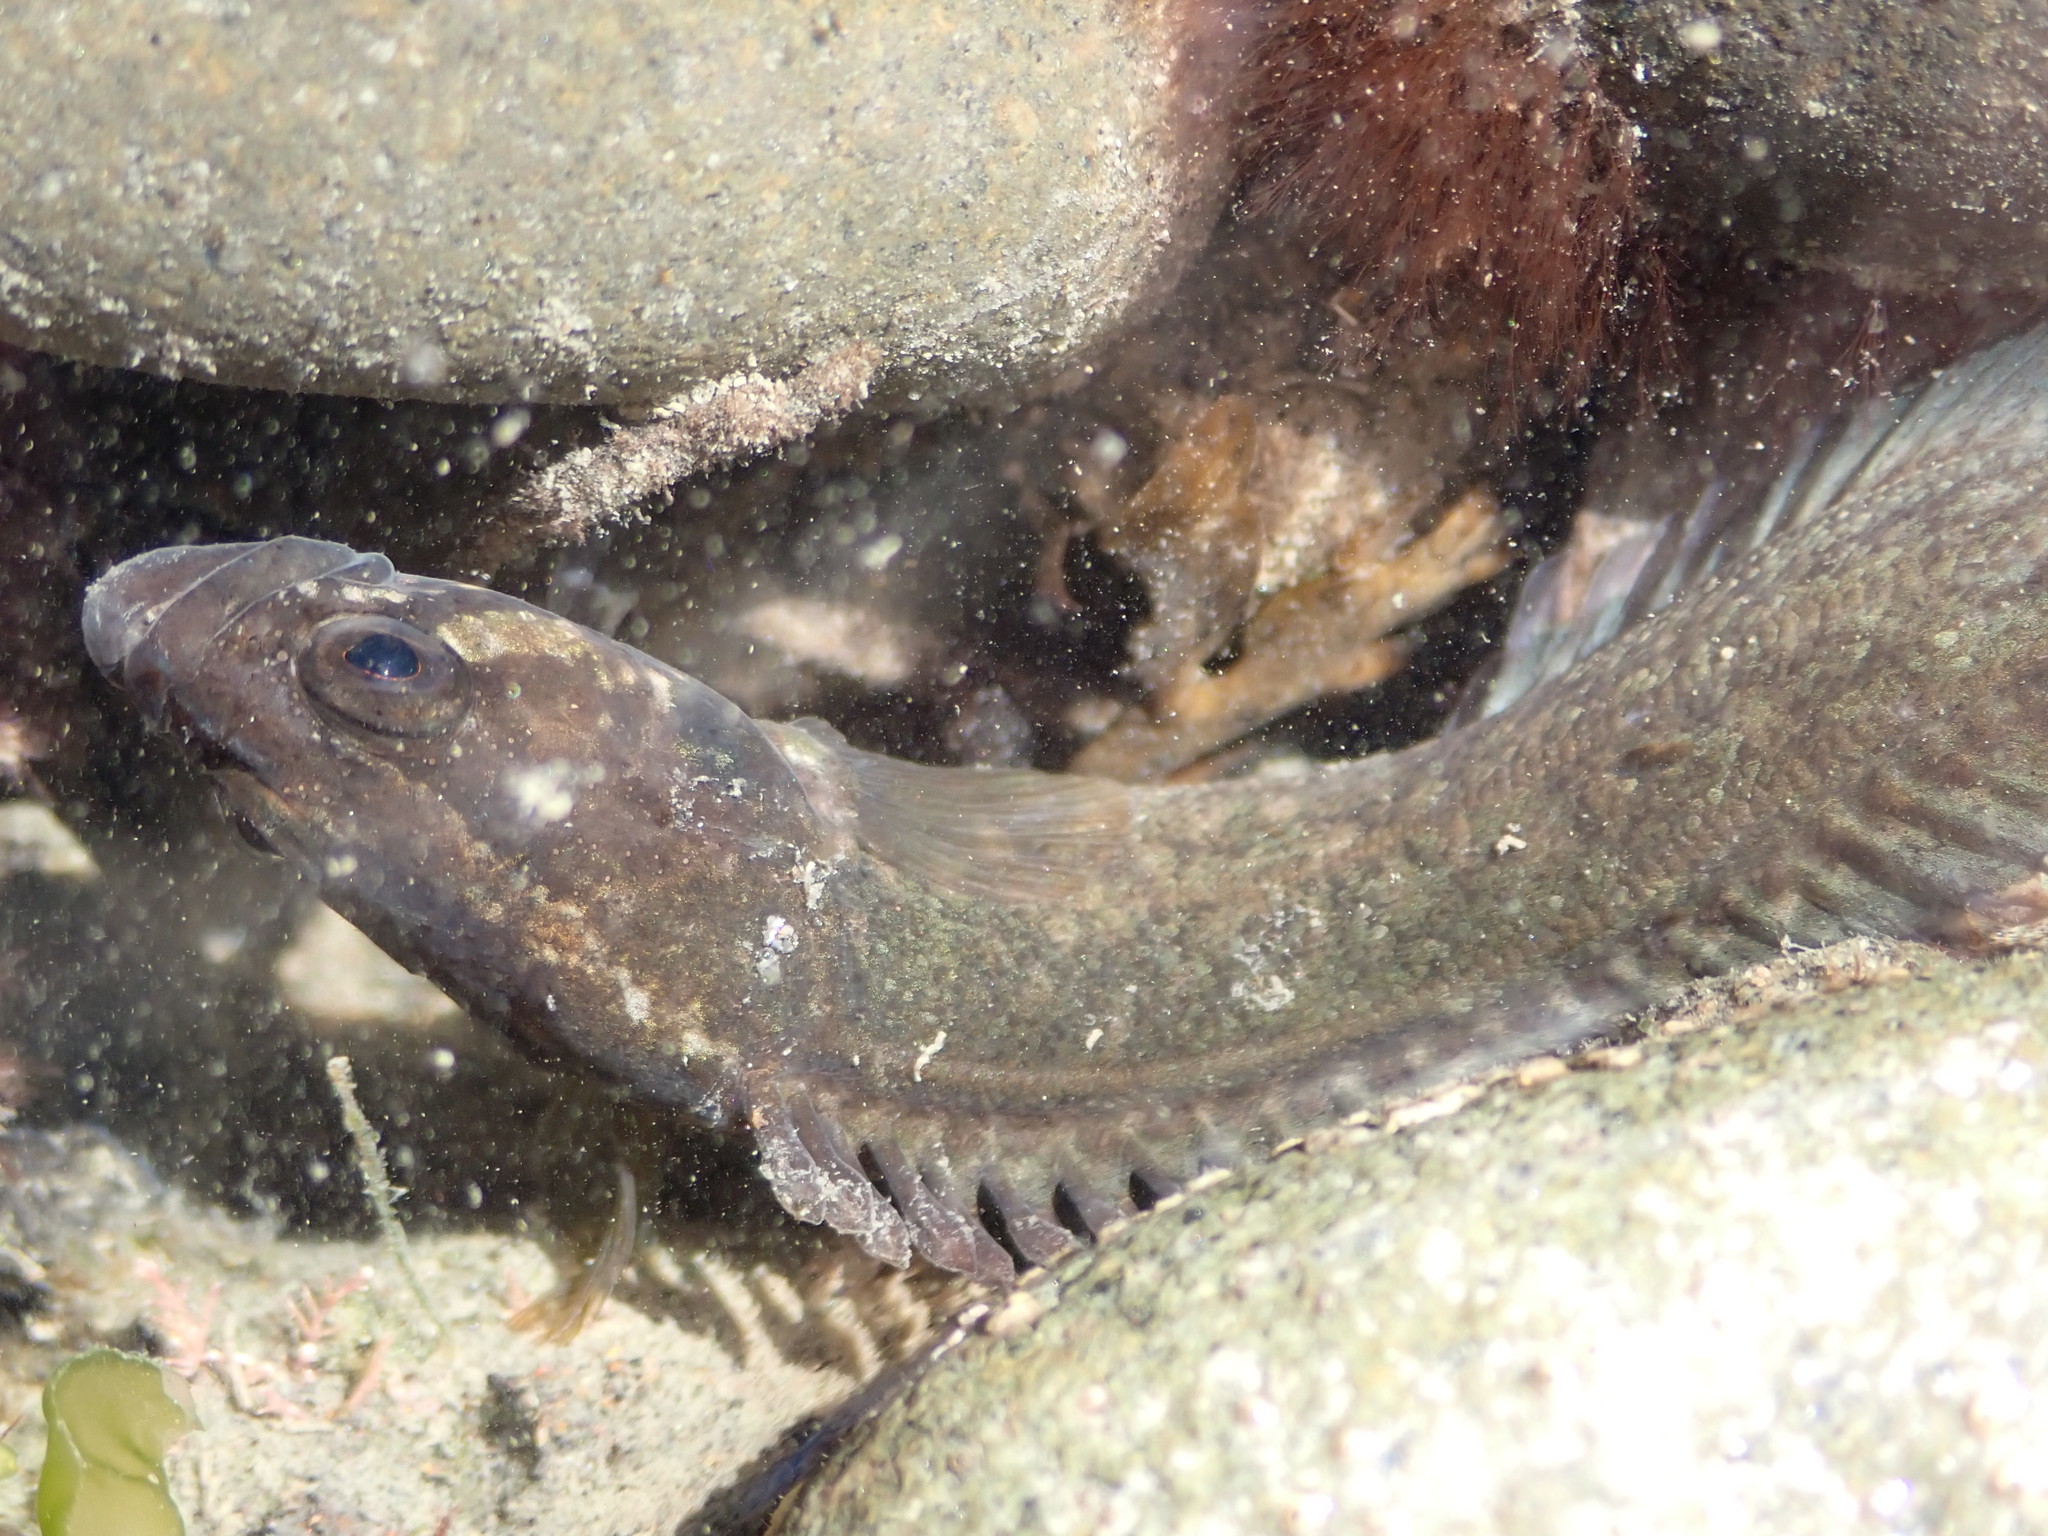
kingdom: Animalia
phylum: Chordata
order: Perciformes
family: Plesiopidae
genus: Acanthoclinus
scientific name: Acanthoclinus fuscus
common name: Olive rockfish
